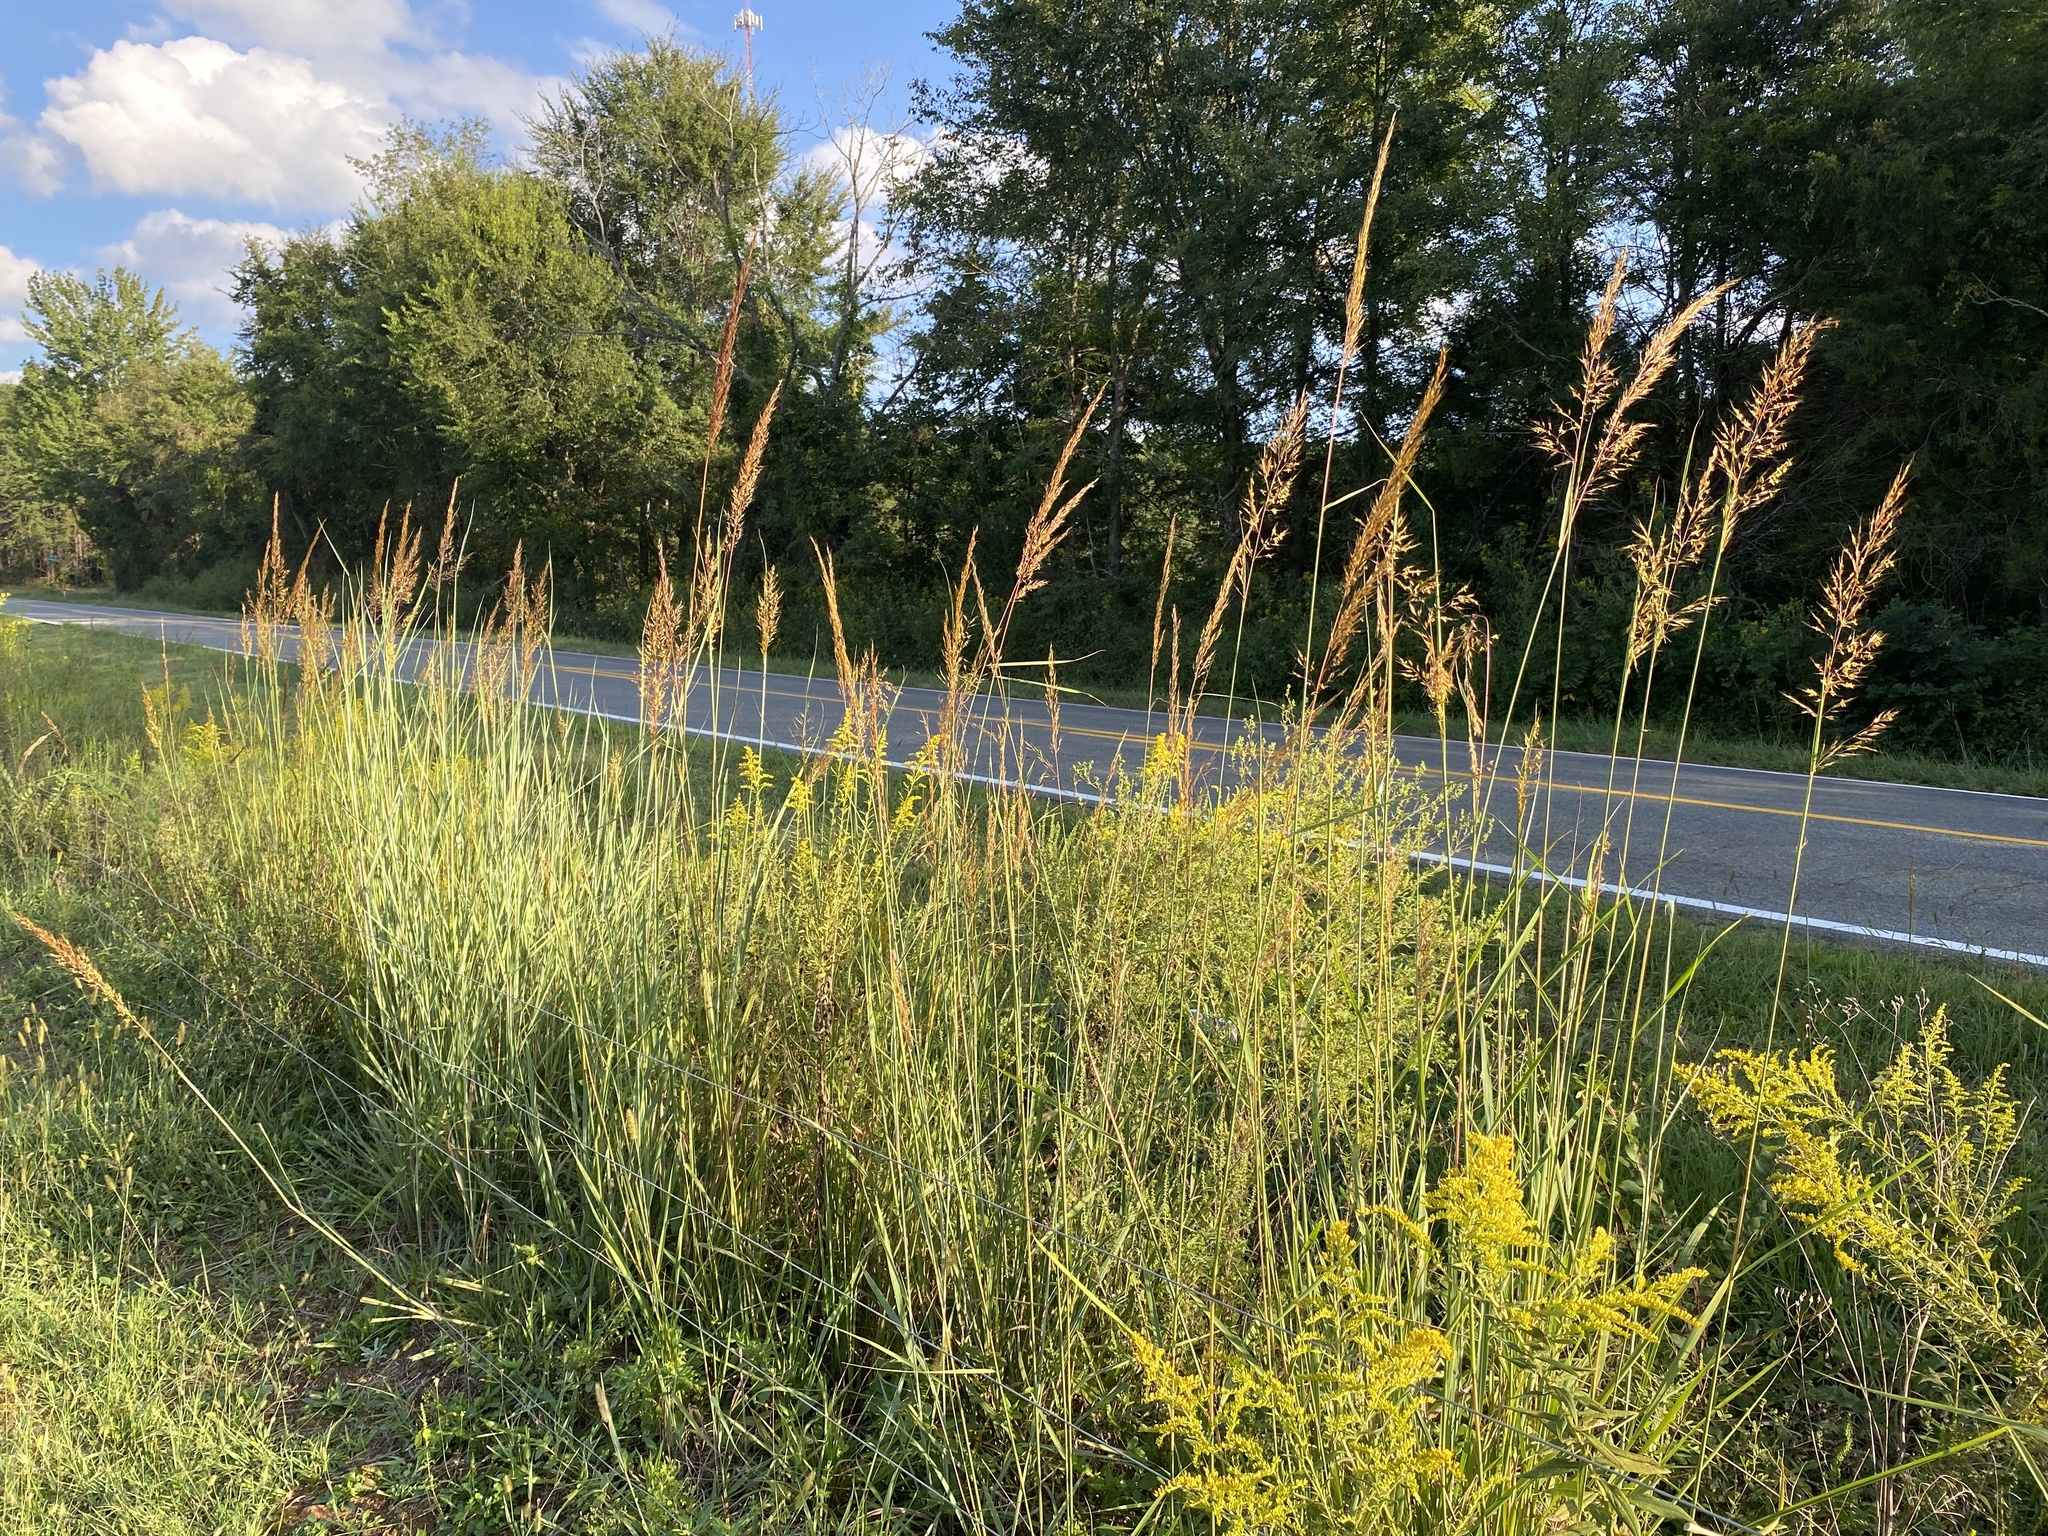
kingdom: Plantae
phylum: Tracheophyta
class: Liliopsida
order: Poales
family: Poaceae
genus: Sorghastrum
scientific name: Sorghastrum nutans
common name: Indian grass
